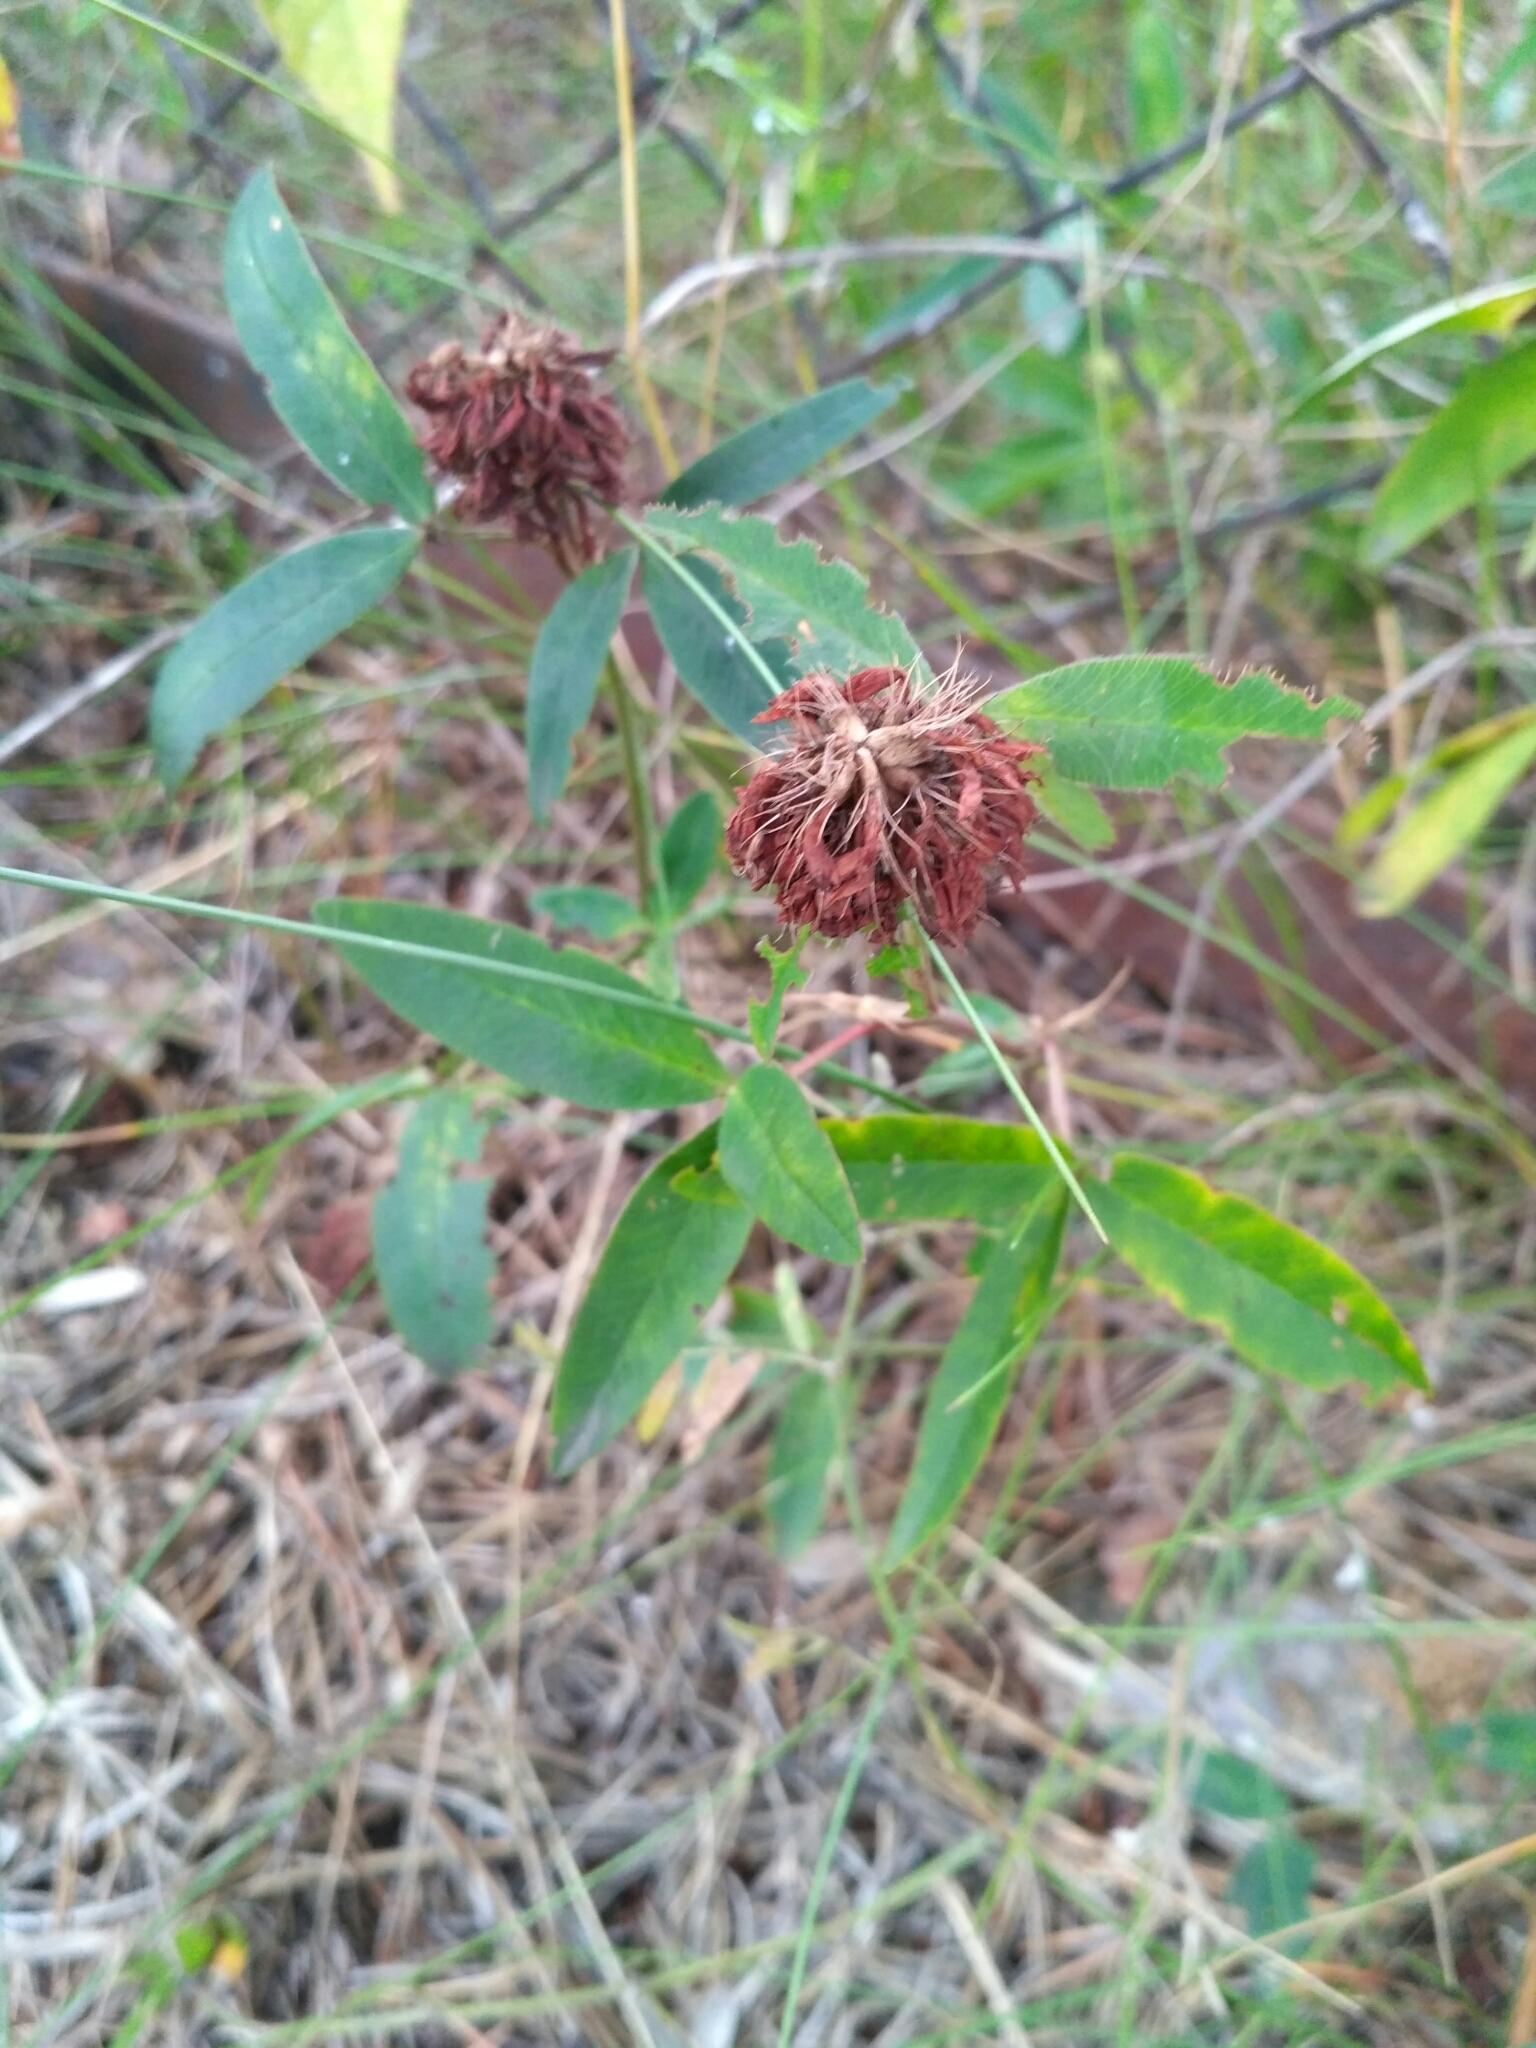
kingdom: Plantae
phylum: Tracheophyta
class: Magnoliopsida
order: Fabales
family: Fabaceae
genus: Trifolium
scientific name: Trifolium medium
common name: Zigzag clover
